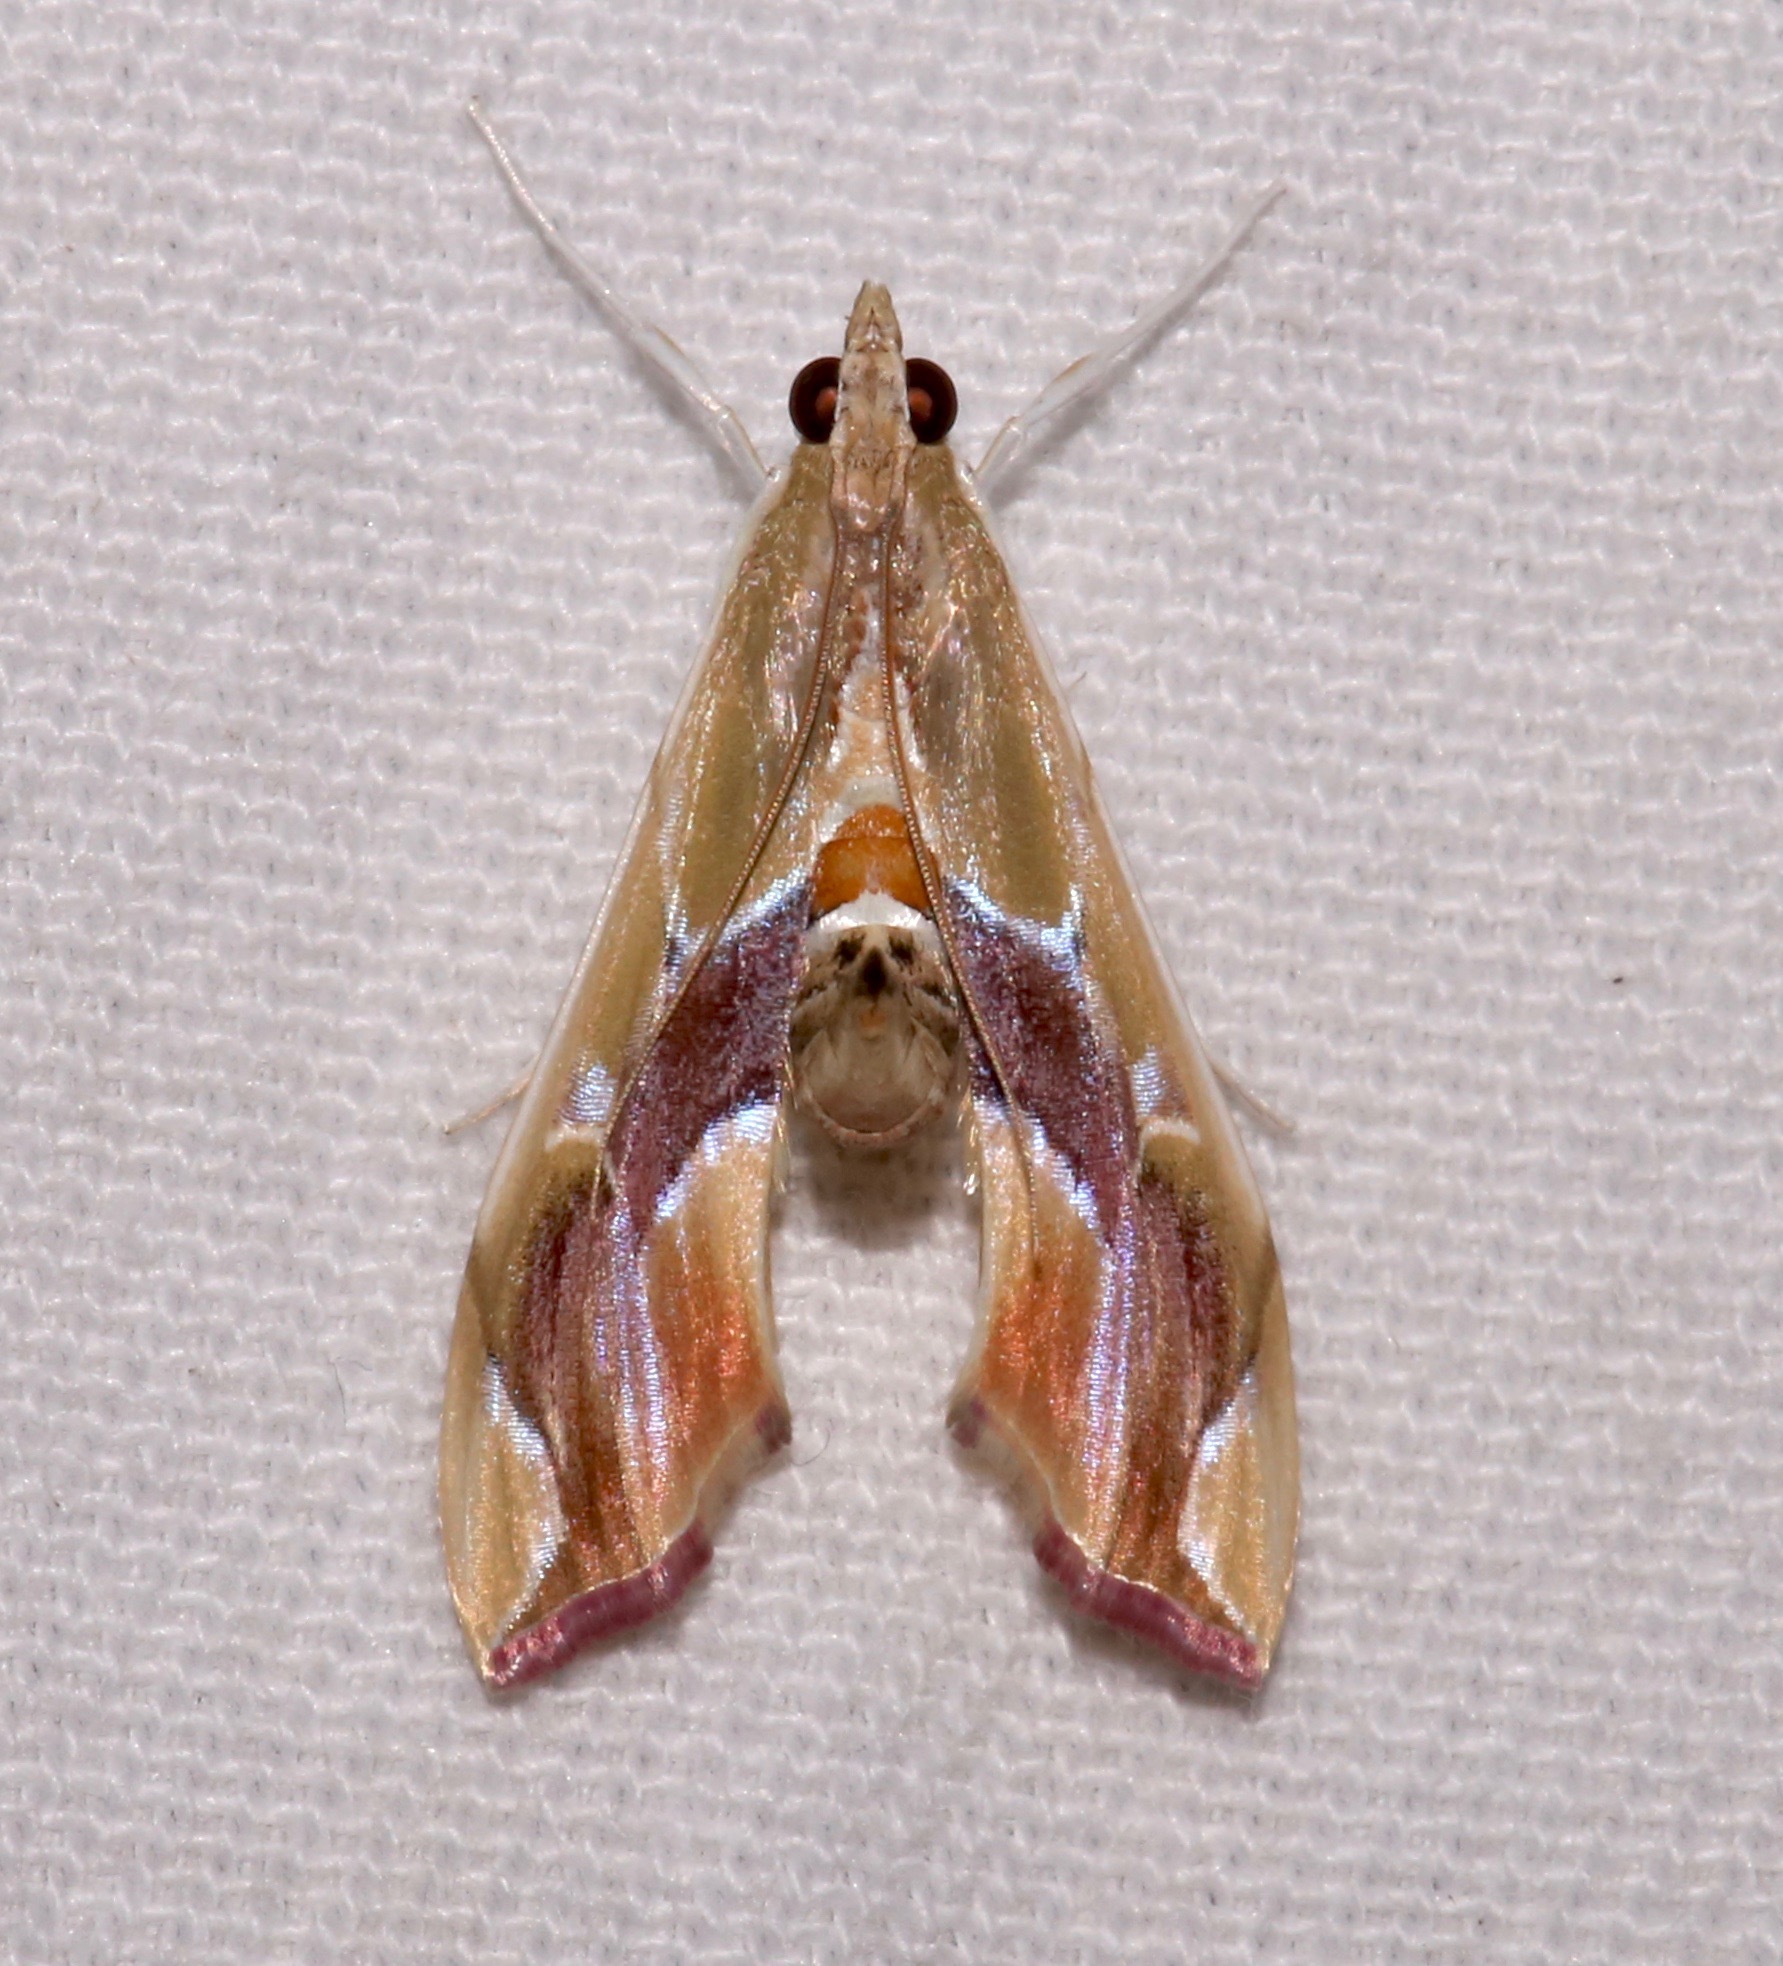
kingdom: Animalia
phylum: Arthropoda
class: Insecta
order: Lepidoptera
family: Crambidae
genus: Agathodes
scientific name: Agathodes monstralis
